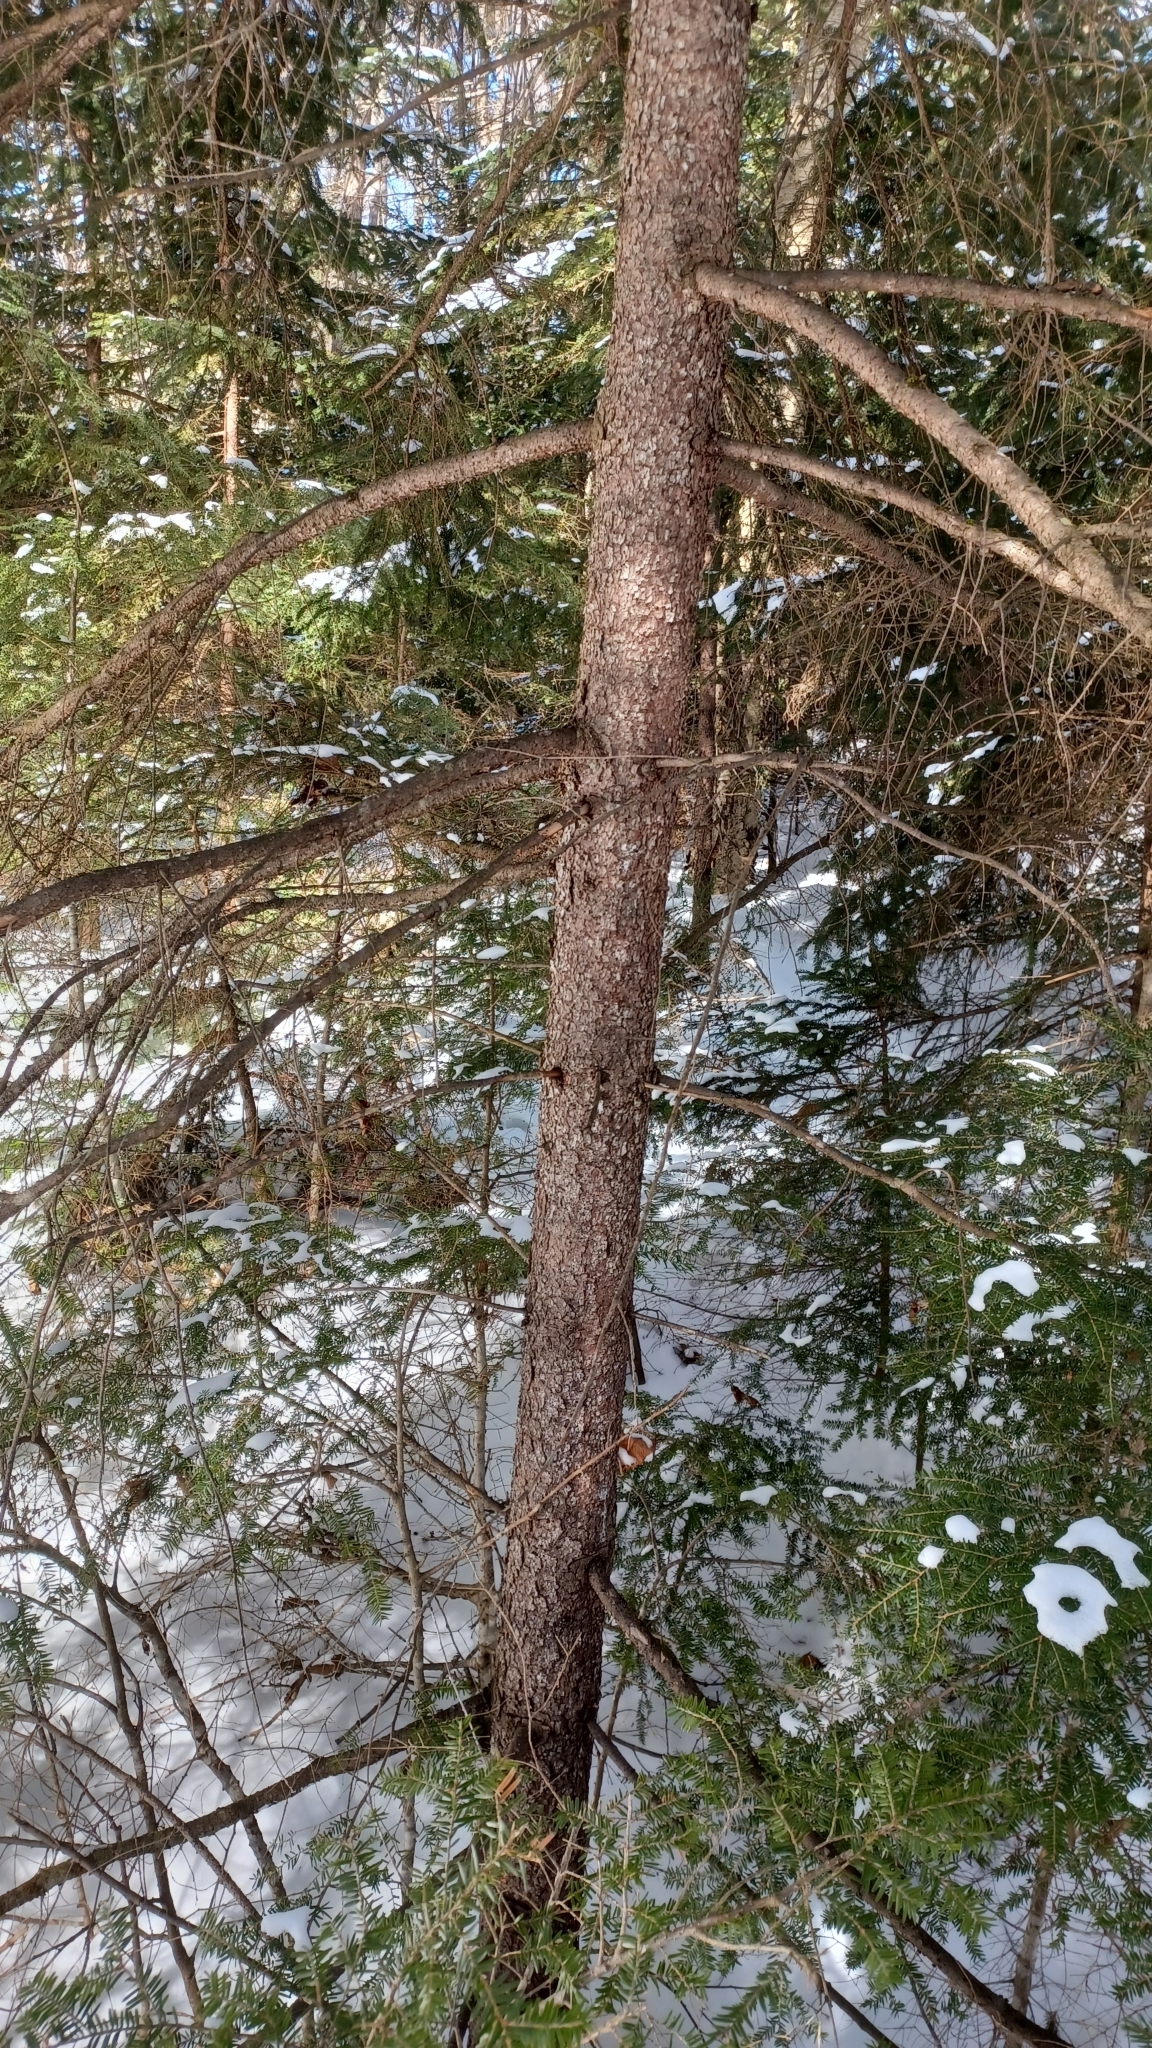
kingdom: Plantae
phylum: Tracheophyta
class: Pinopsida
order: Pinales
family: Pinaceae
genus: Picea
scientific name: Picea rubens
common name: Red spruce
